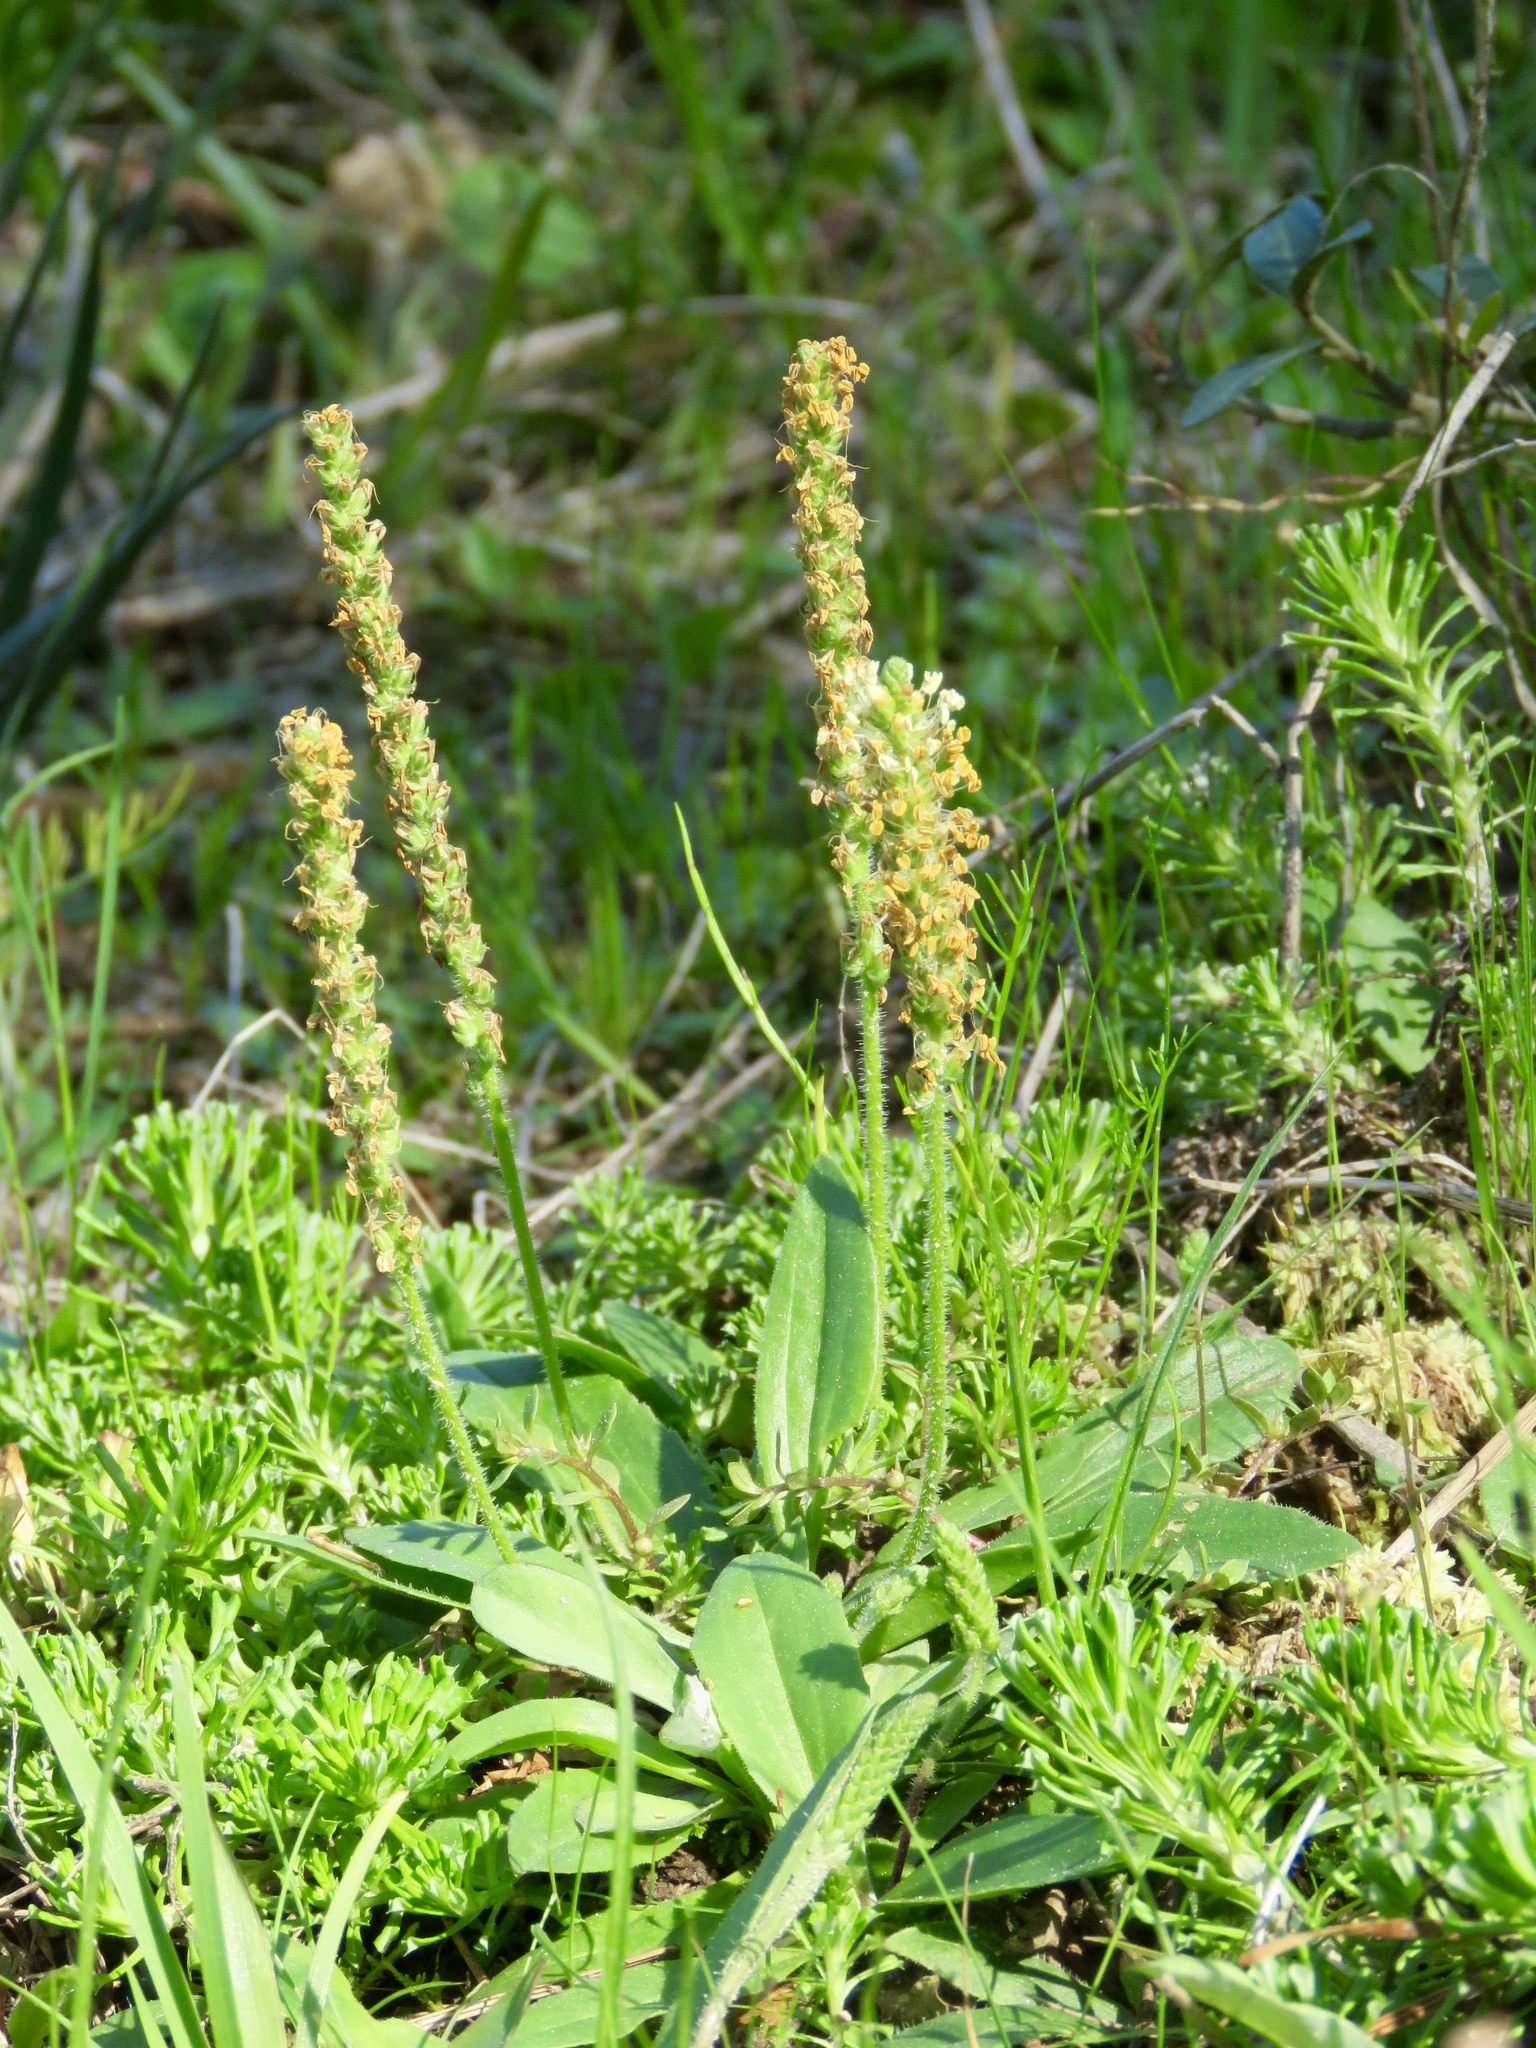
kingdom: Plantae
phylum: Tracheophyta
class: Magnoliopsida
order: Lamiales
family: Plantaginaceae
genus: Plantago
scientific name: Plantago virginica
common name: Hoary plantain
